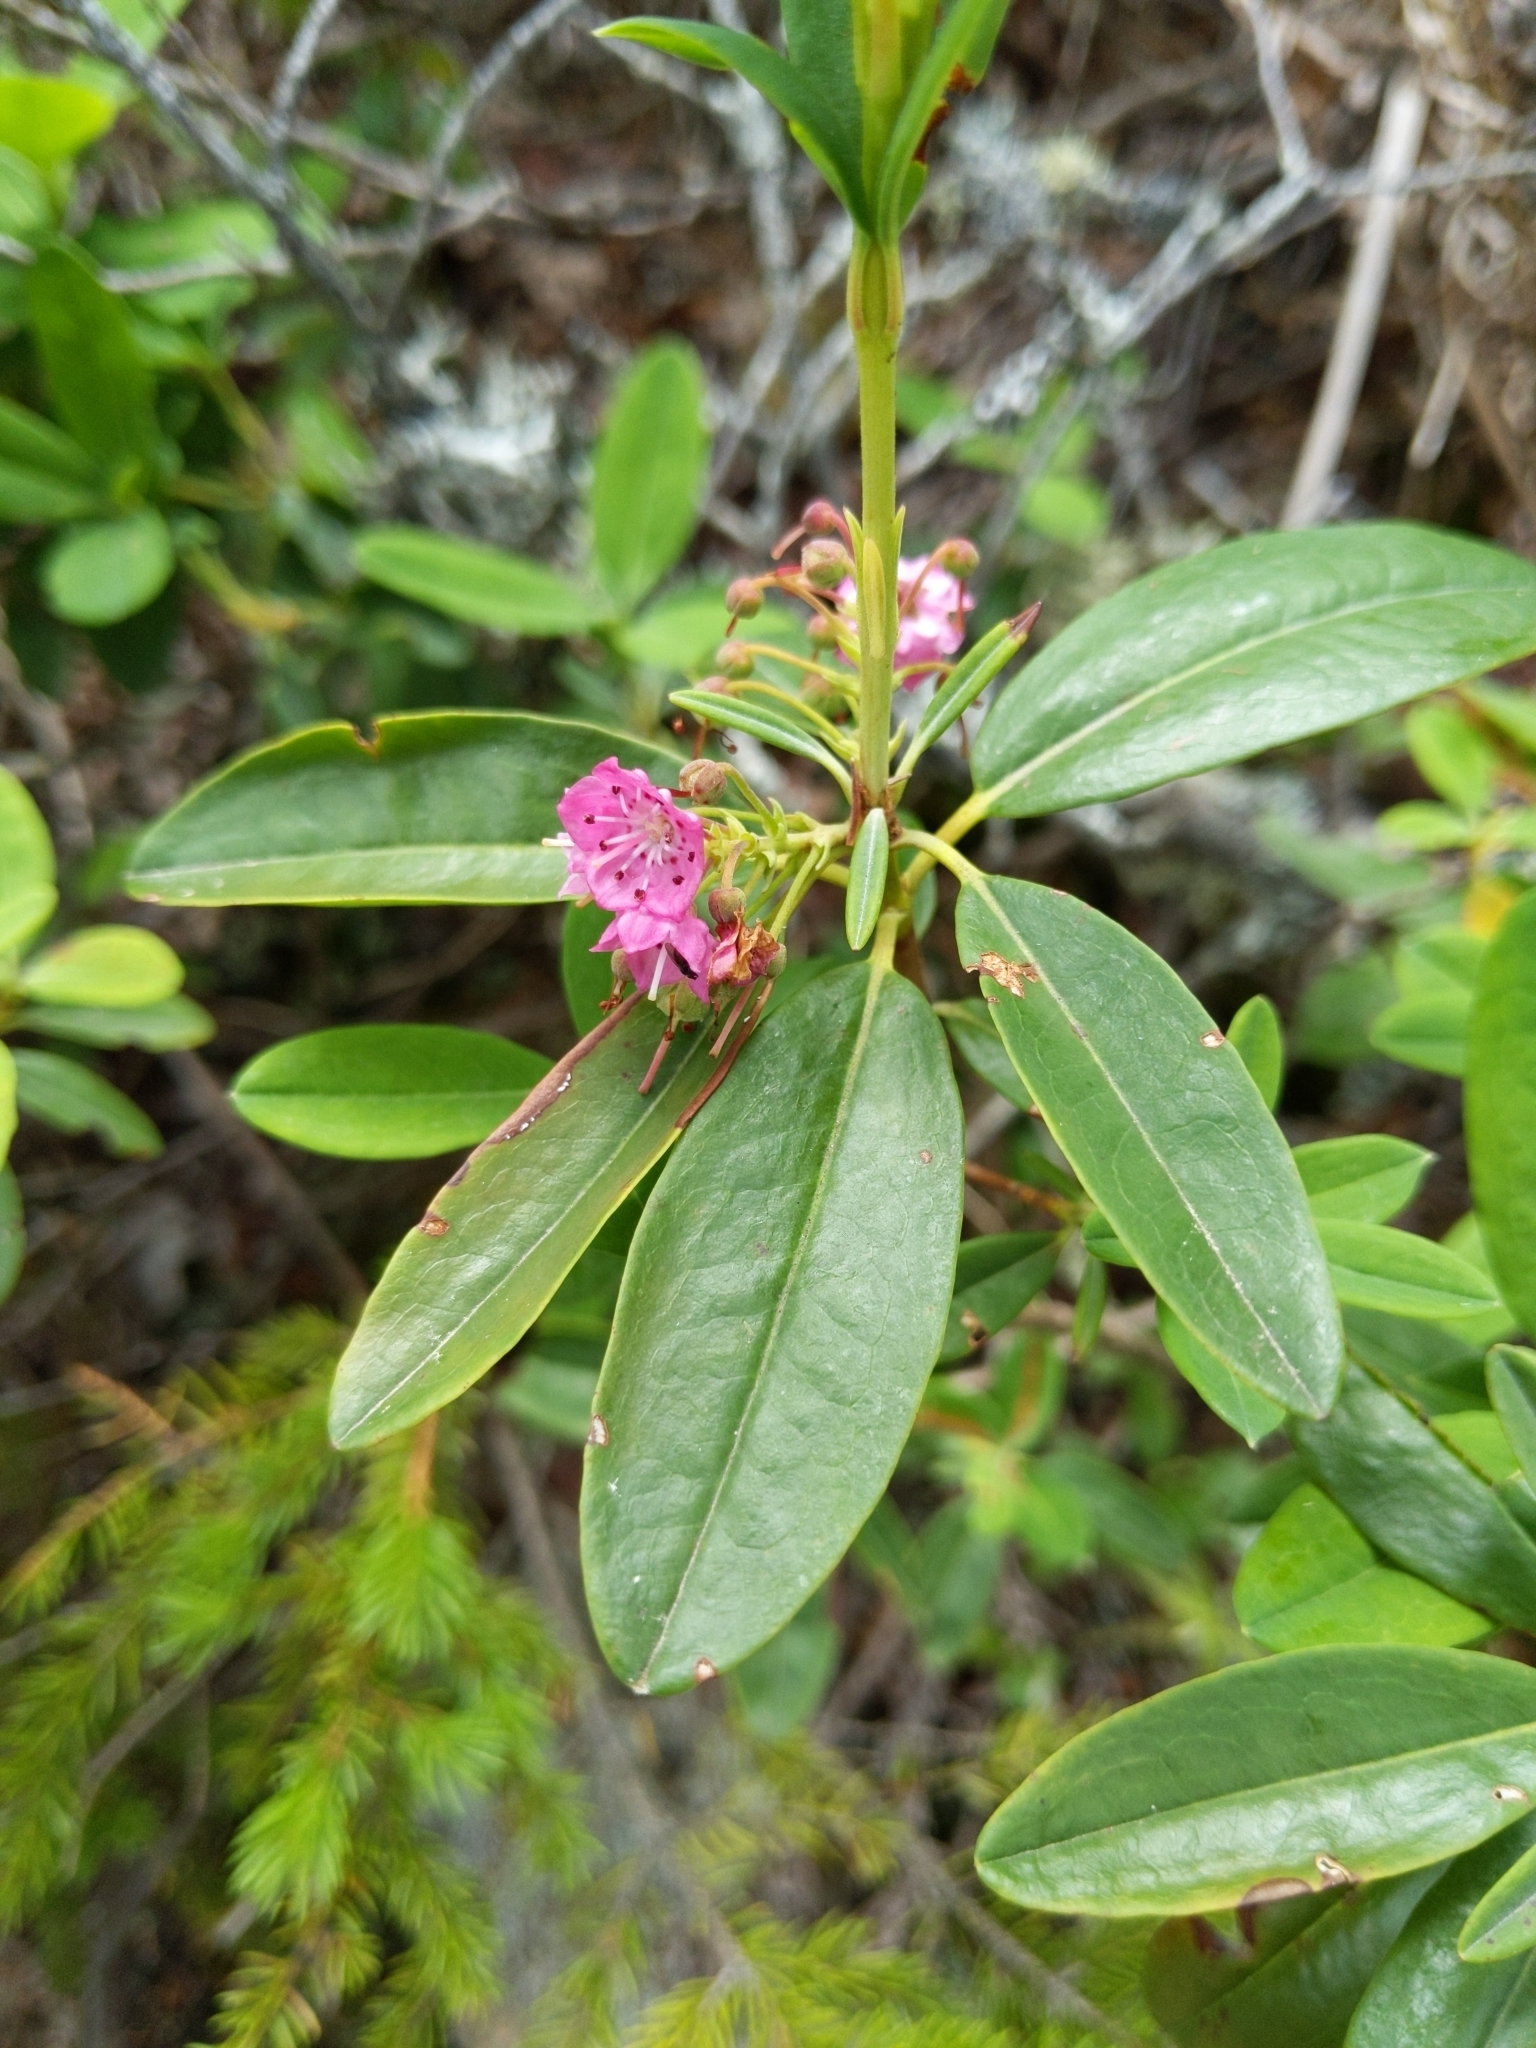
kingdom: Plantae
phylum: Tracheophyta
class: Magnoliopsida
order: Ericales
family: Ericaceae
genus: Kalmia
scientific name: Kalmia angustifolia
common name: Sheep-laurel
